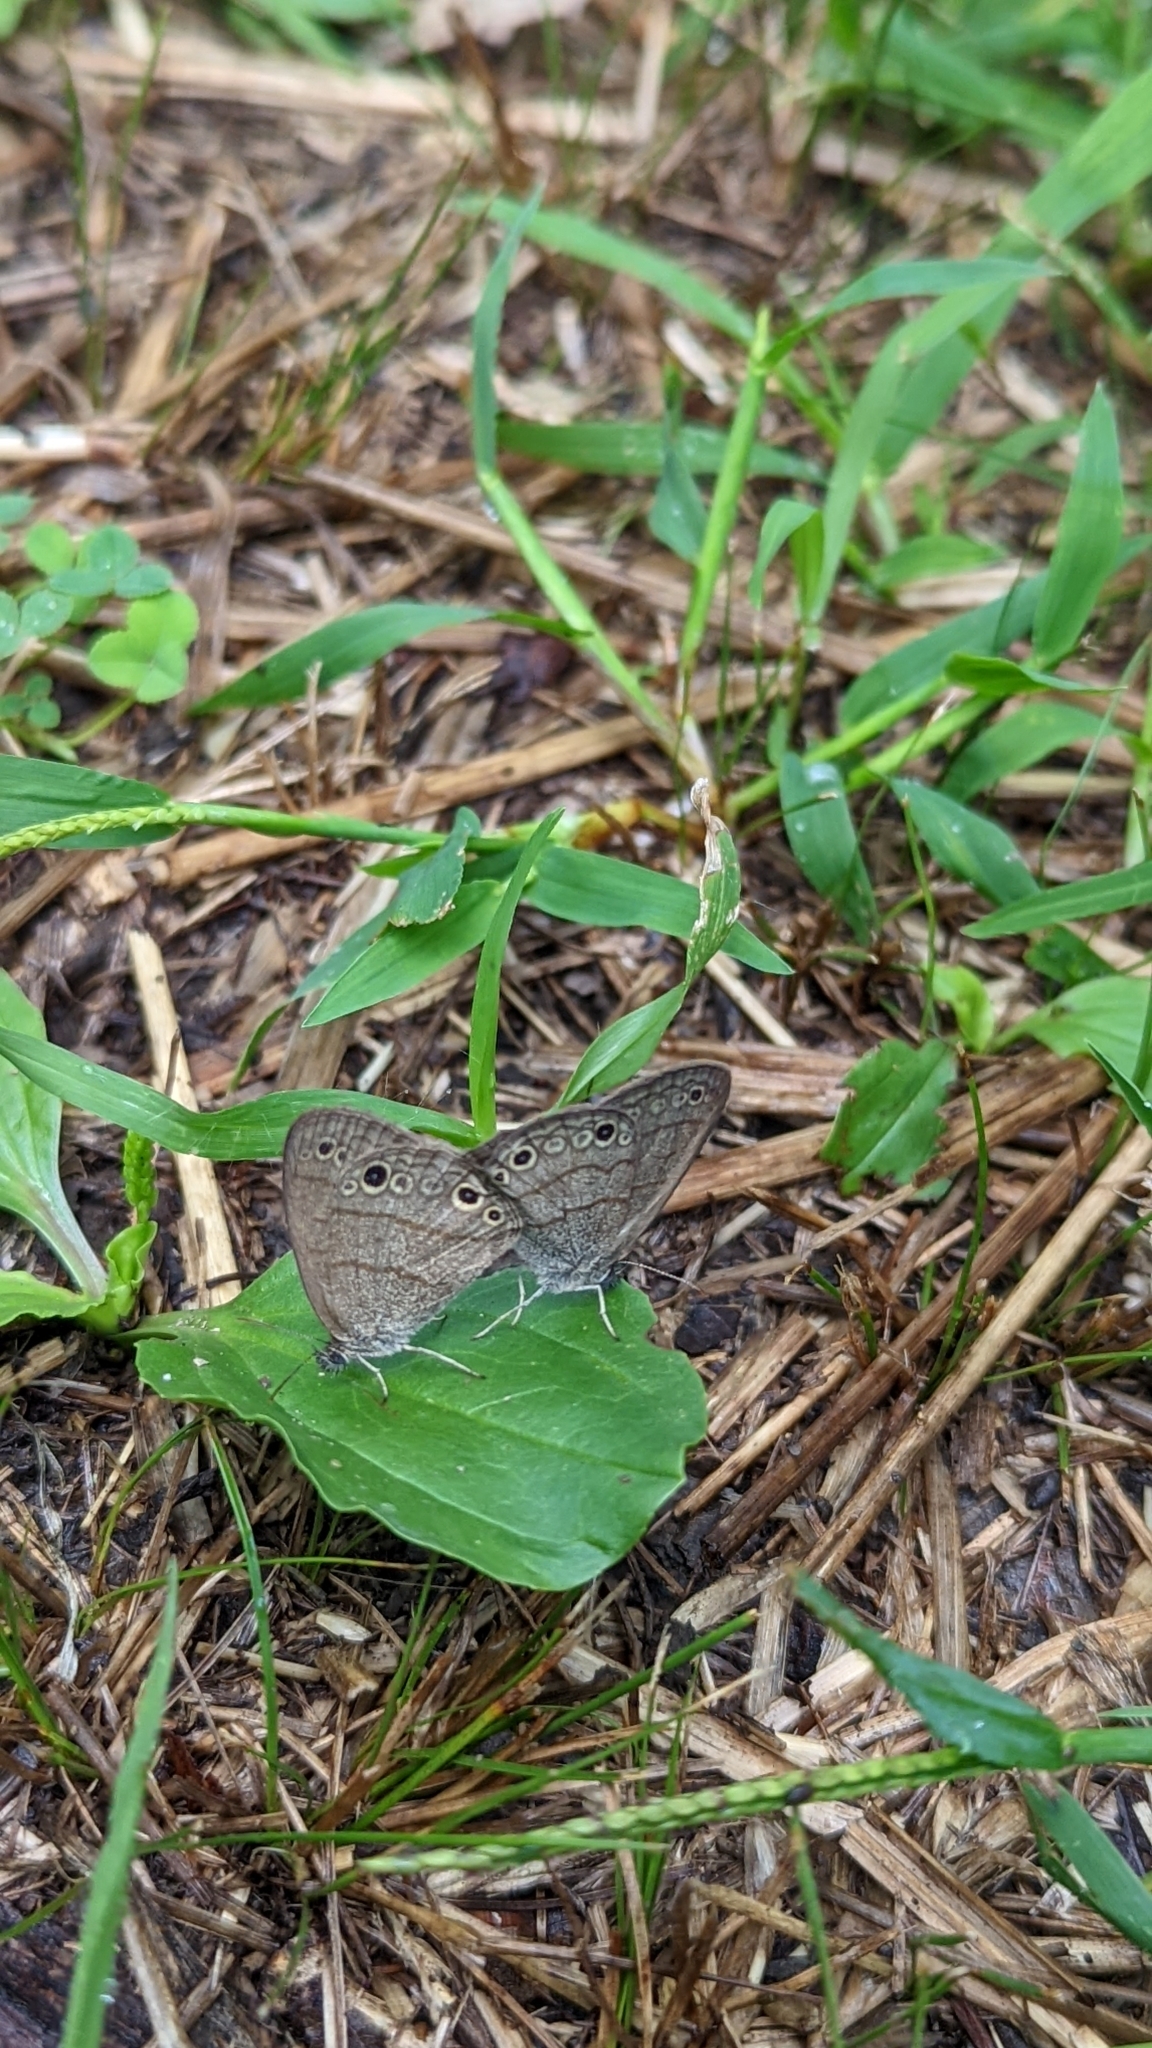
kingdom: Animalia
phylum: Arthropoda
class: Insecta
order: Lepidoptera
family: Nymphalidae
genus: Hermeuptychia
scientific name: Hermeuptychia hermes
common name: Hermes satyr
